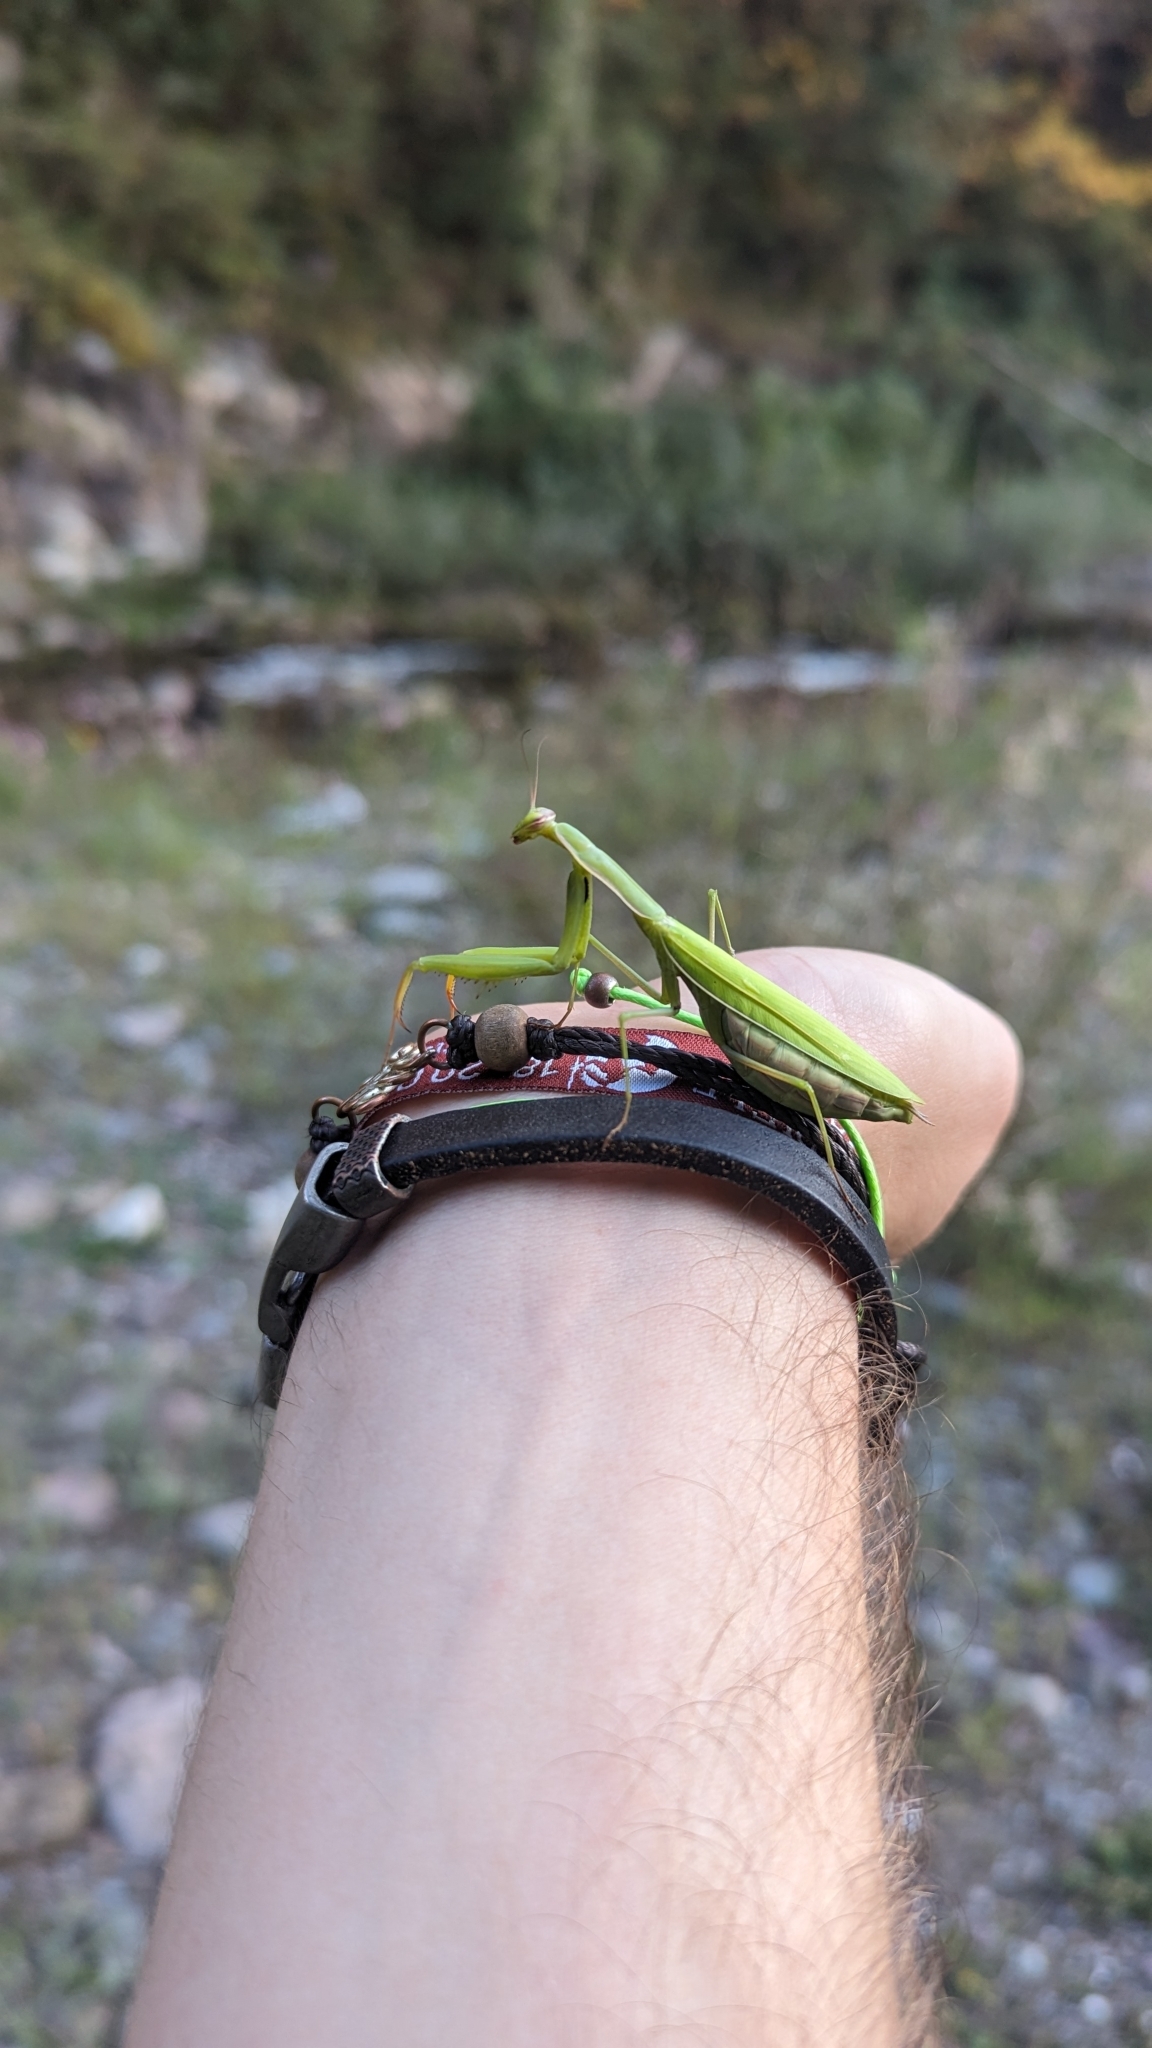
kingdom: Animalia
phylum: Arthropoda
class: Insecta
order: Mantodea
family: Mantidae
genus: Mantis
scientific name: Mantis religiosa
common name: Praying mantis
